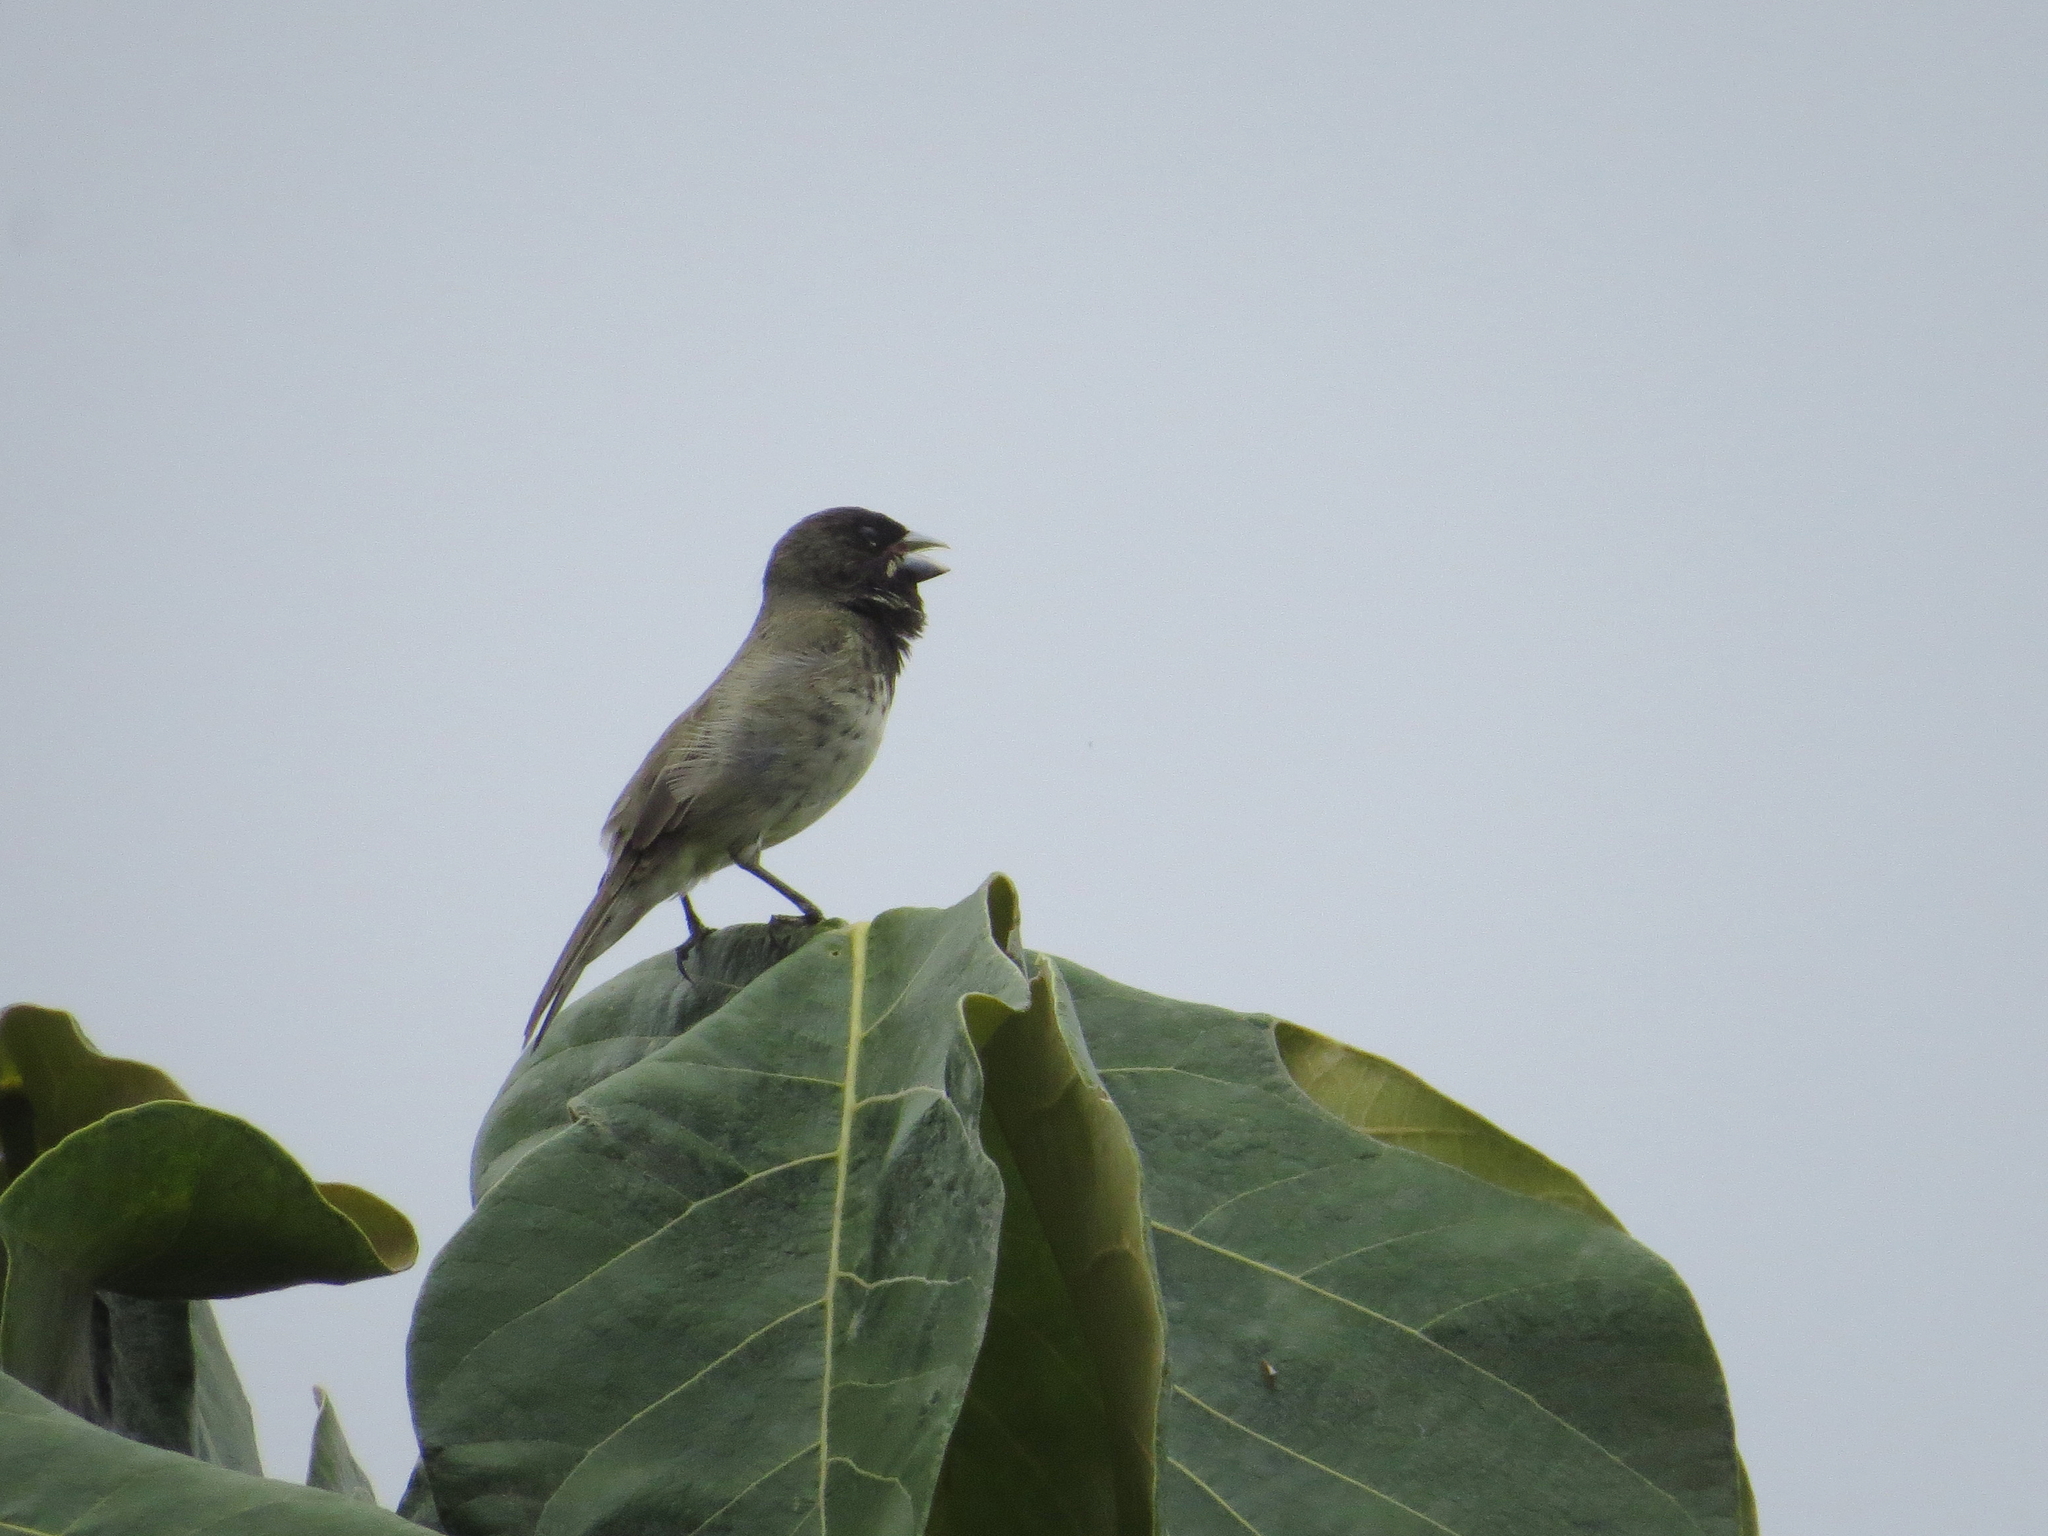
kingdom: Animalia
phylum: Chordata
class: Aves
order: Passeriformes
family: Thraupidae
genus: Sporophila
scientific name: Sporophila nigricollis
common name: Yellow-bellied seedeater
